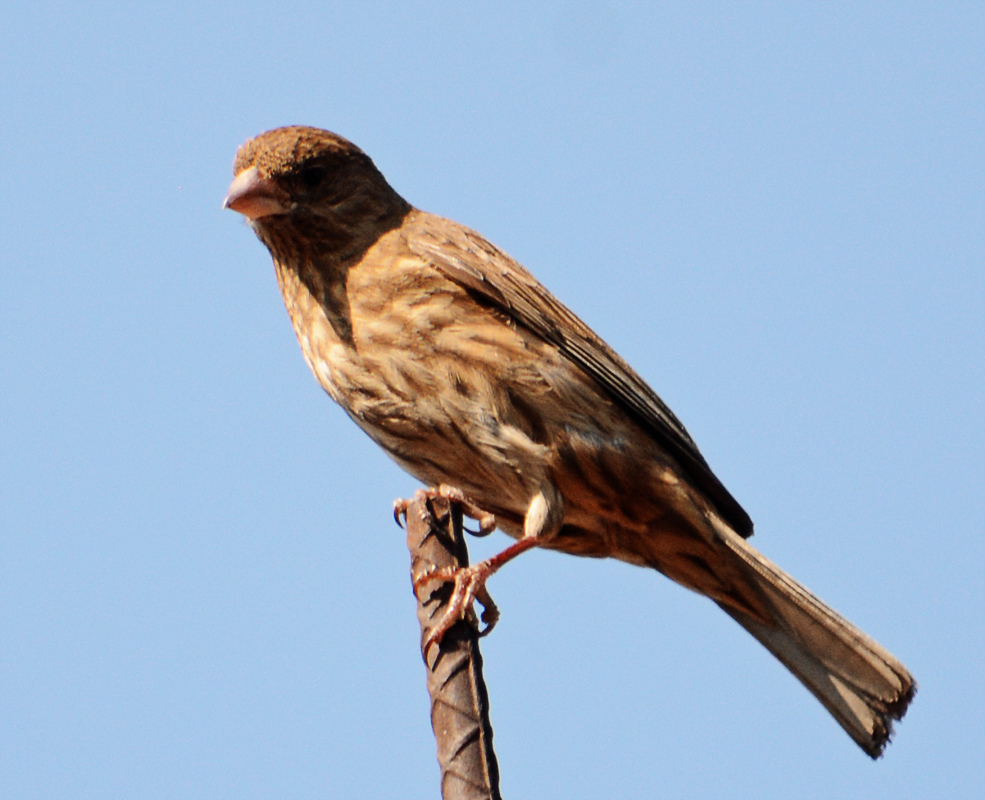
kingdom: Animalia
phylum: Chordata
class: Aves
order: Passeriformes
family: Fringillidae
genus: Haemorhous
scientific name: Haemorhous mexicanus
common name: House finch
